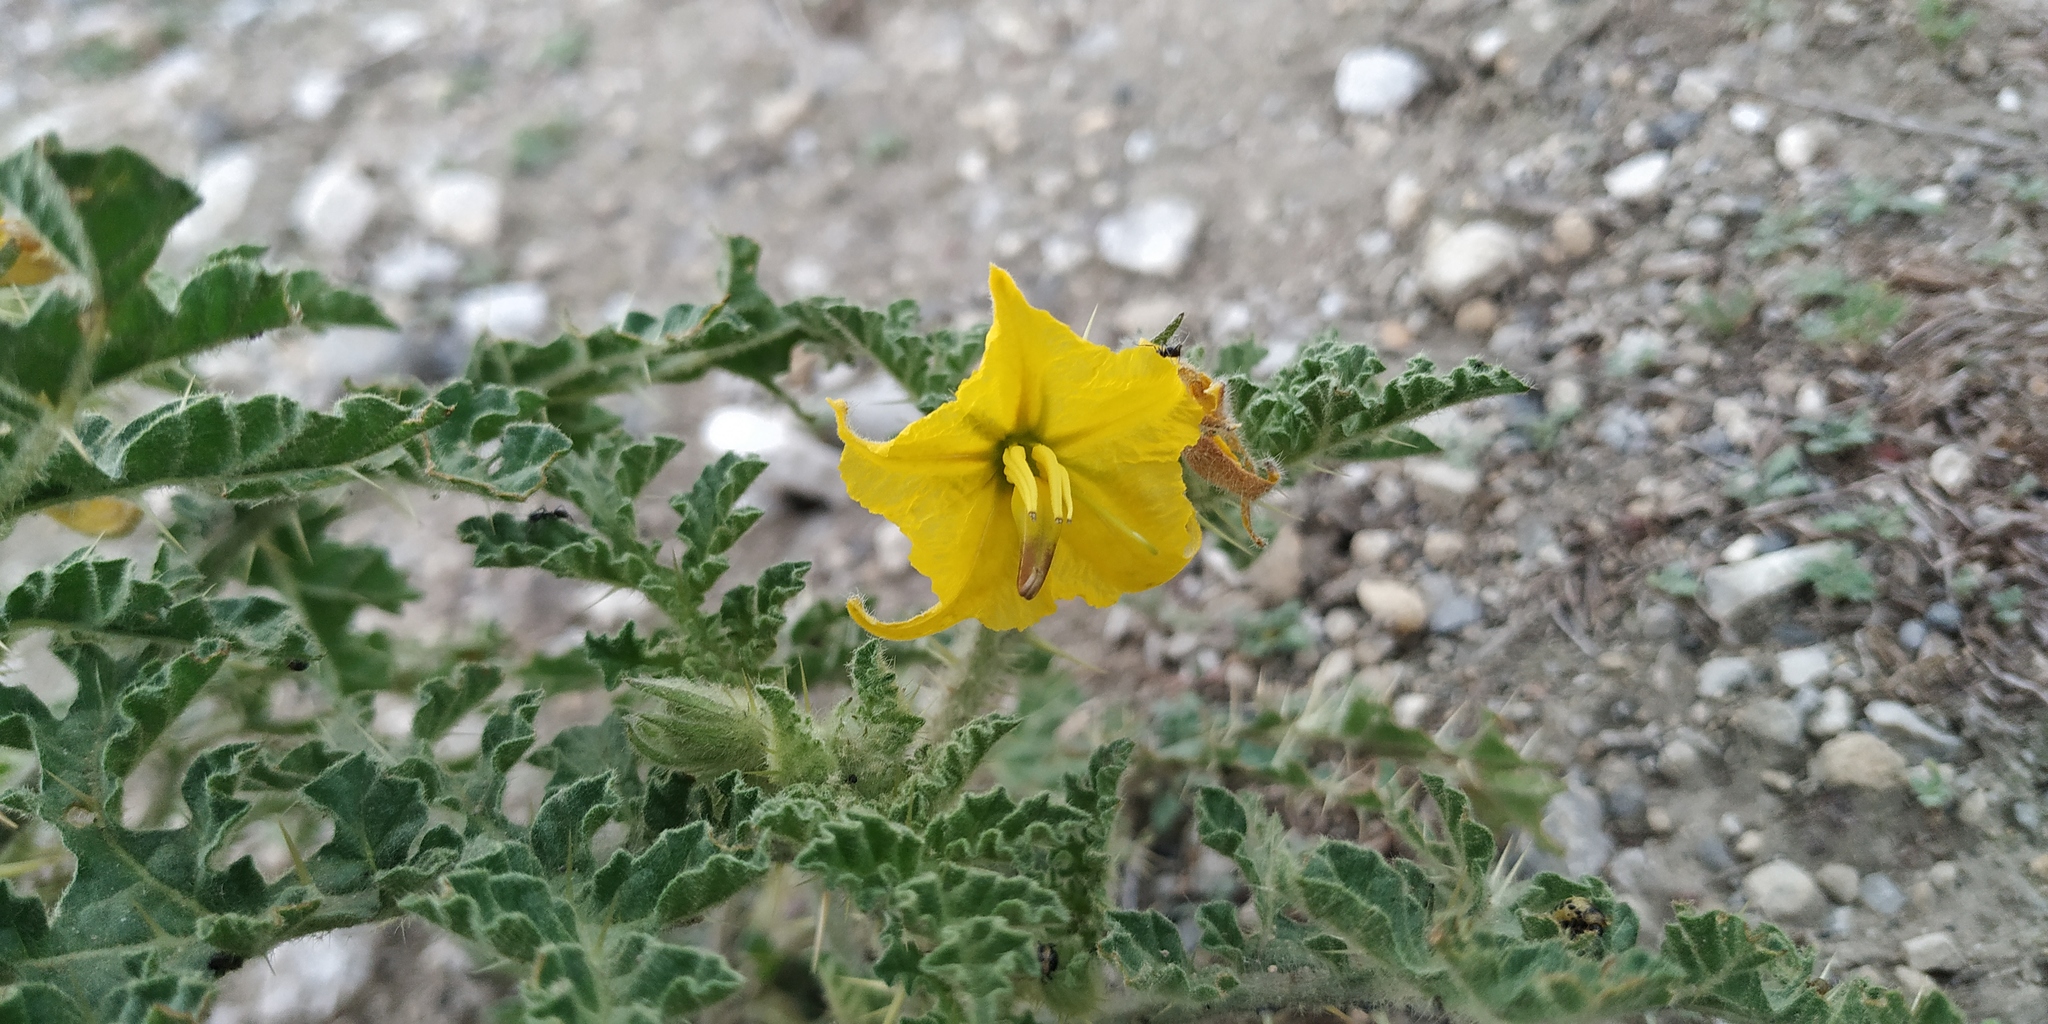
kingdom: Plantae
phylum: Tracheophyta
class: Magnoliopsida
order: Solanales
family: Solanaceae
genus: Solanum
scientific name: Solanum angustifolium
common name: Buffalobur nightshade
